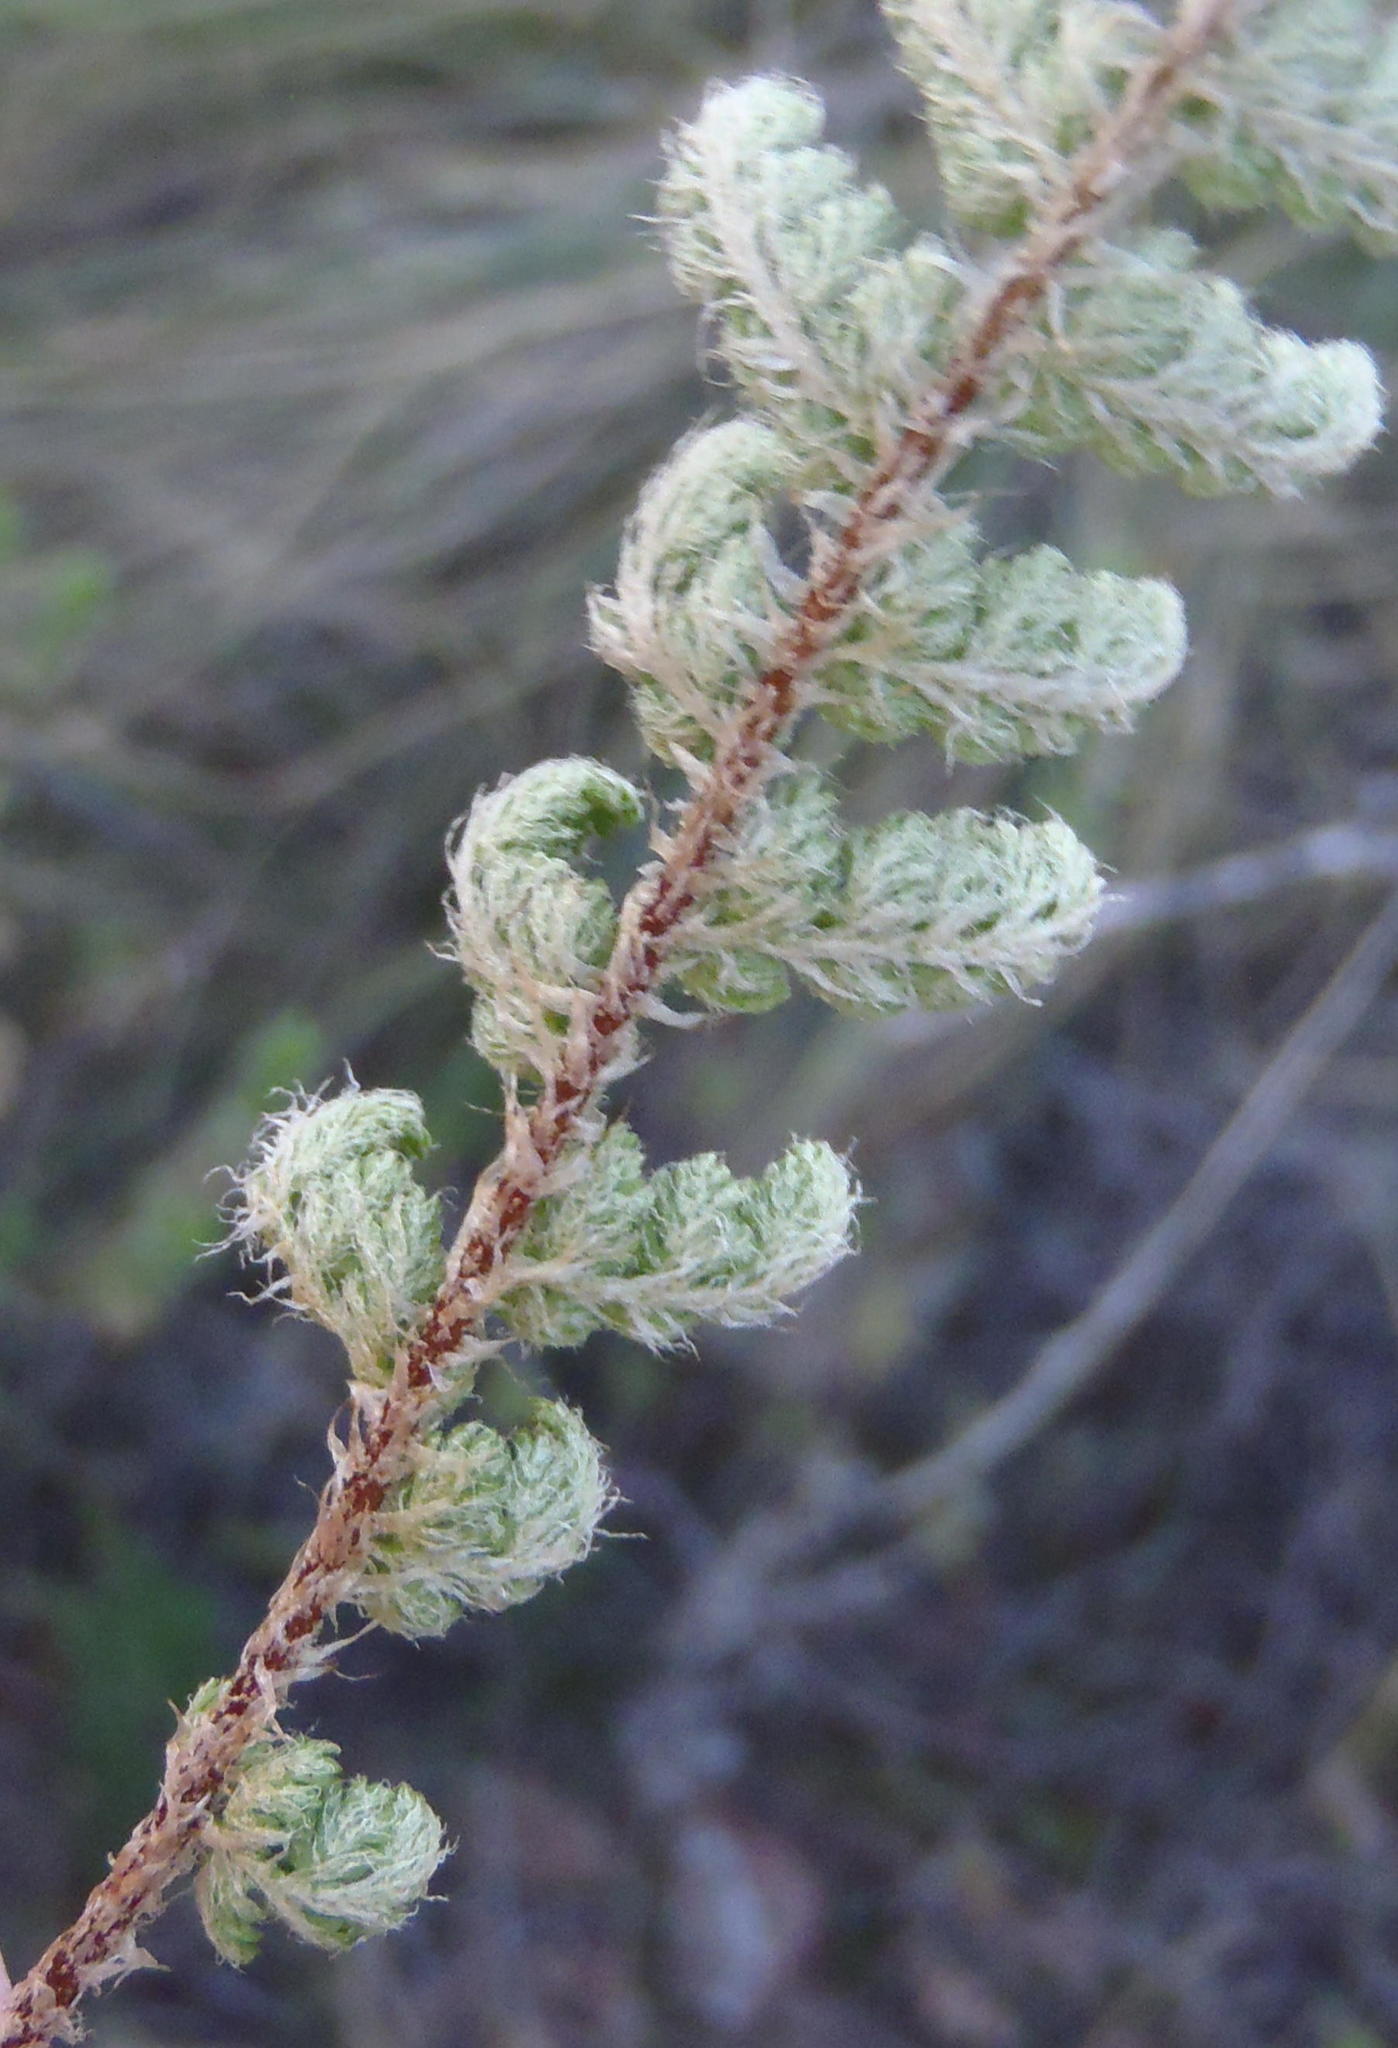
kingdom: Plantae
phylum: Tracheophyta
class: Polypodiopsida
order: Polypodiales
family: Aspleniaceae
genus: Asplenium
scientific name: Asplenium cordatum
